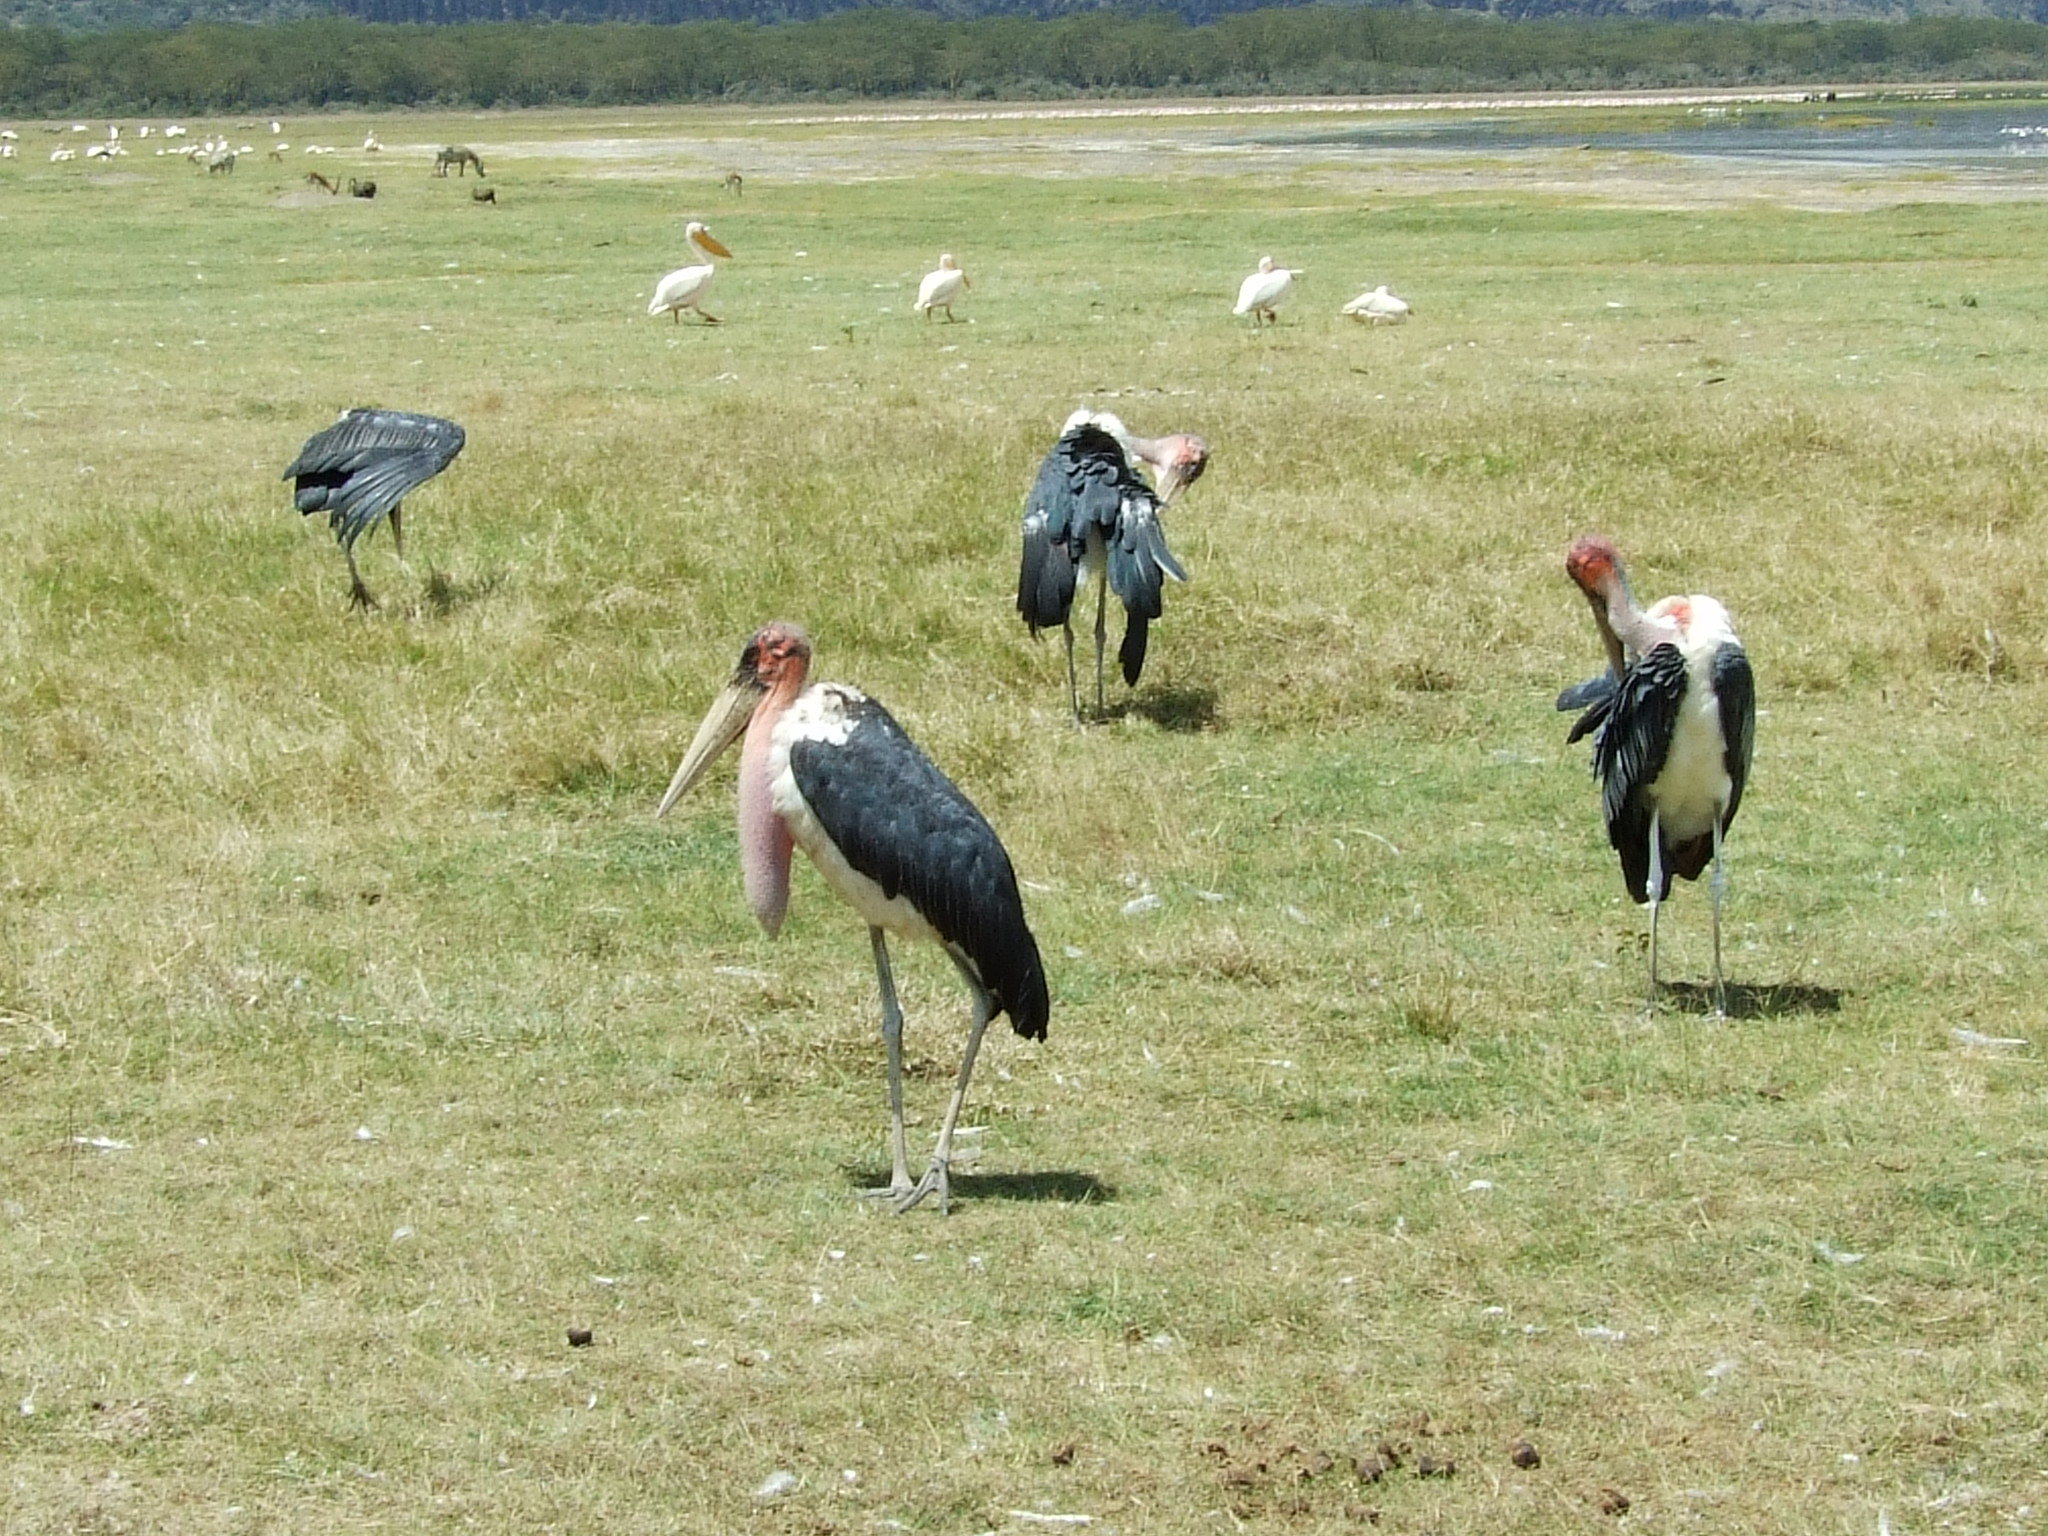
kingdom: Animalia
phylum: Chordata
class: Aves
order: Ciconiiformes
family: Ciconiidae
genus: Leptoptilos
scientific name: Leptoptilos crumenifer
